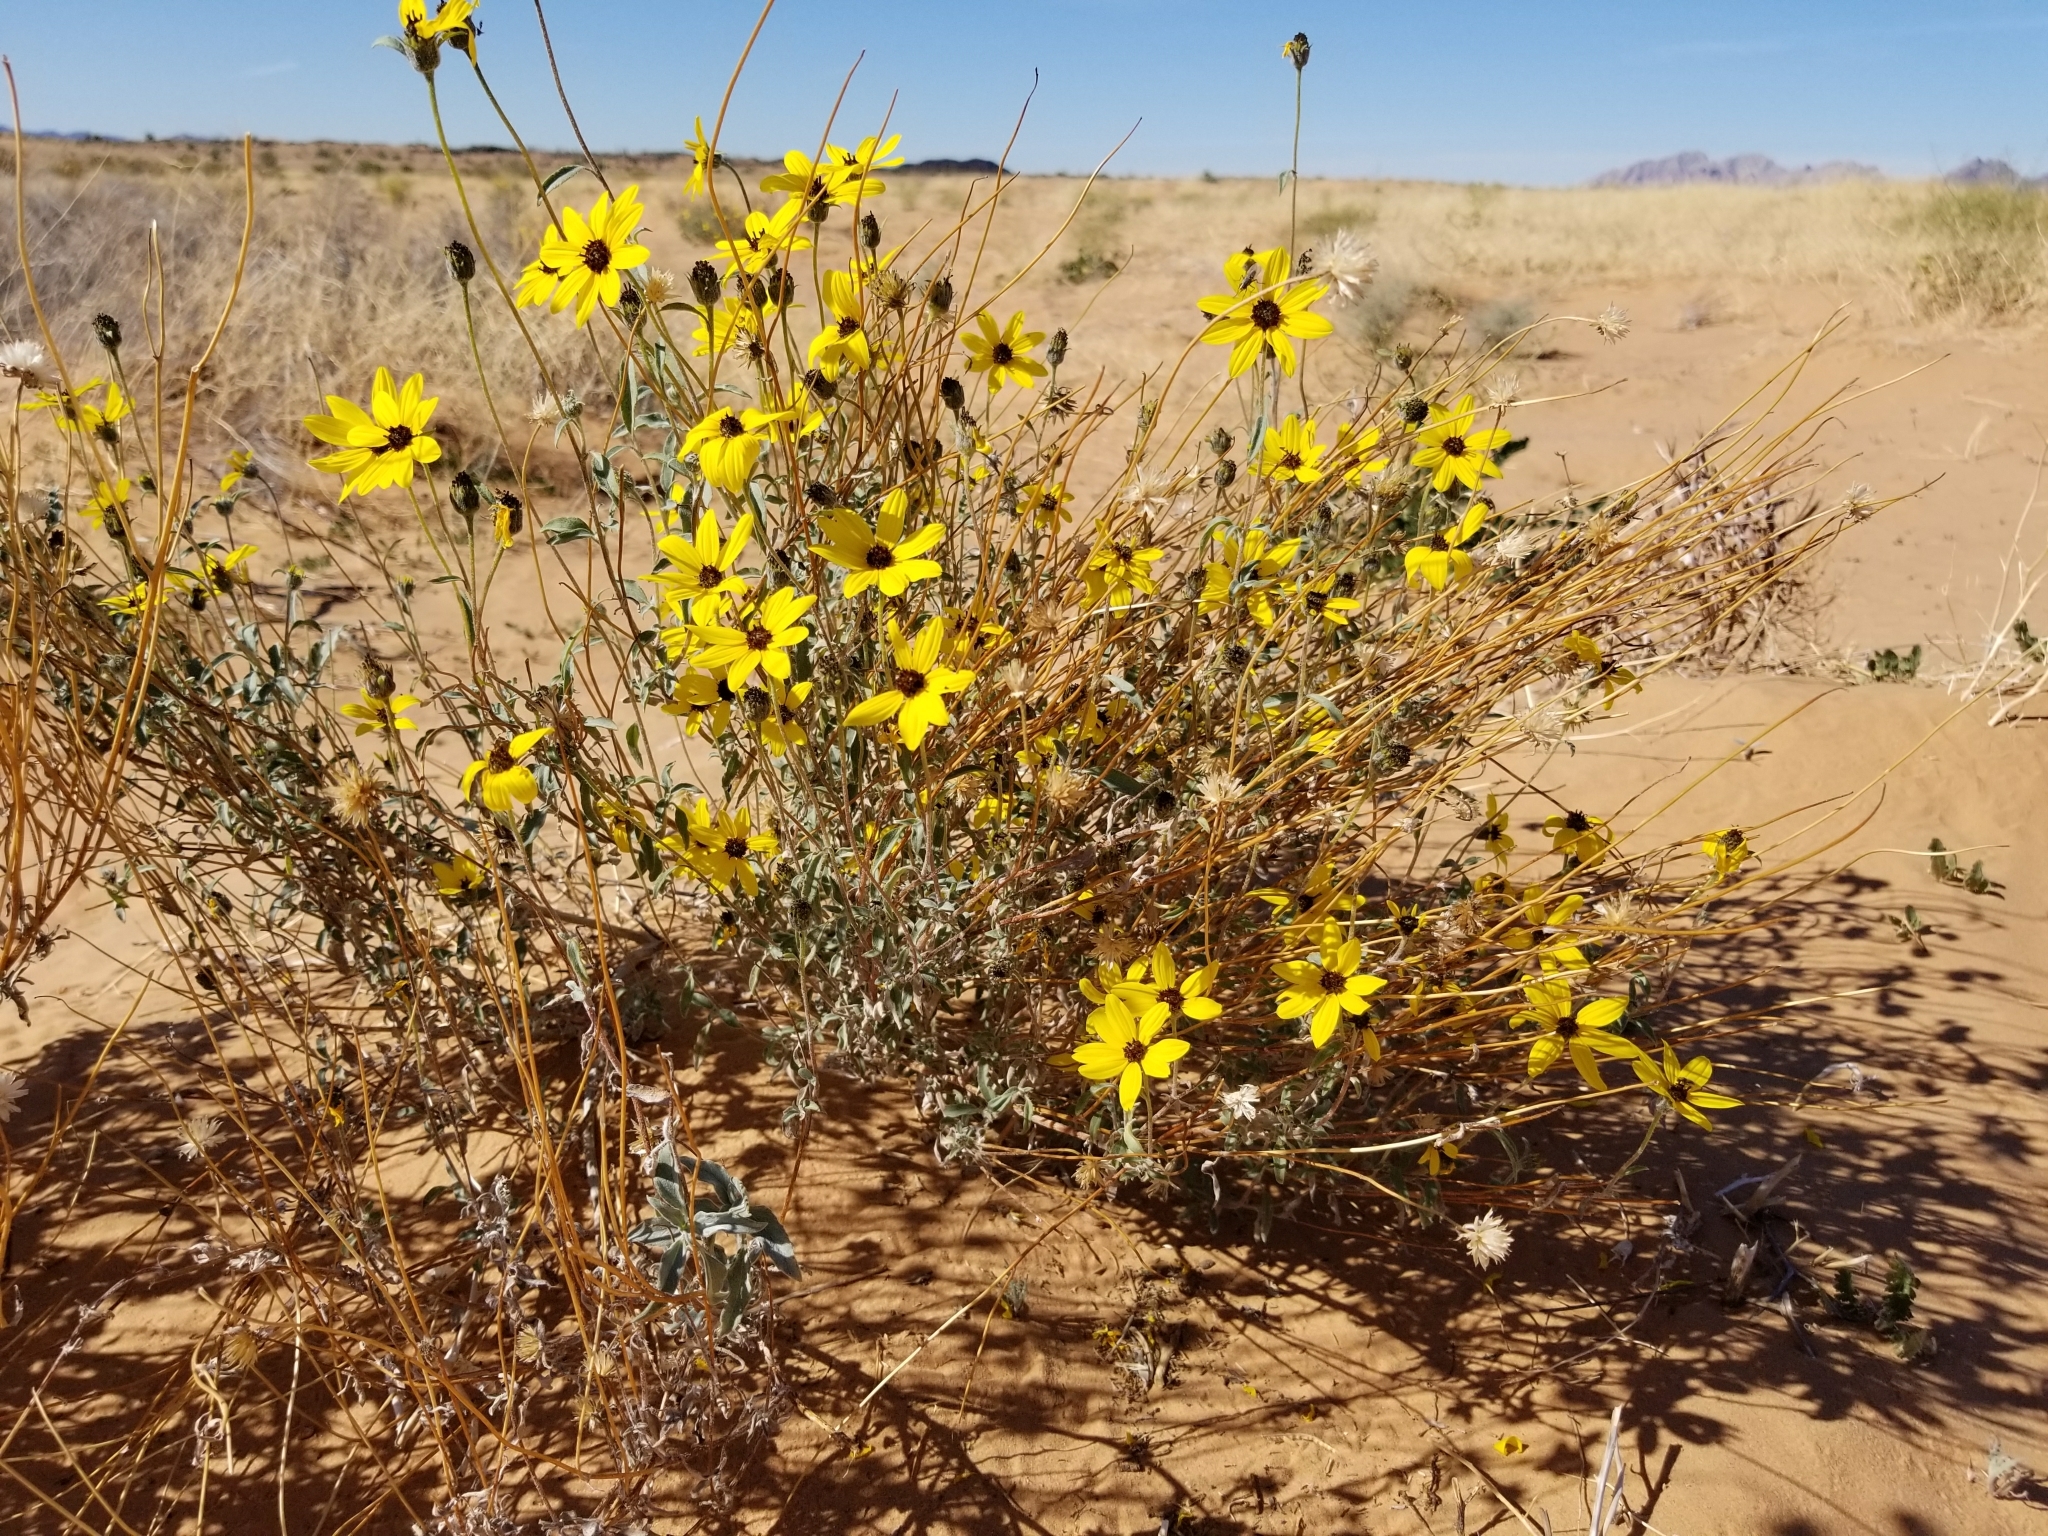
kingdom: Plantae
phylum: Tracheophyta
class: Magnoliopsida
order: Asterales
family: Asteraceae
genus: Helianthus
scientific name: Helianthus petiolaris
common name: Lesser sunflower
